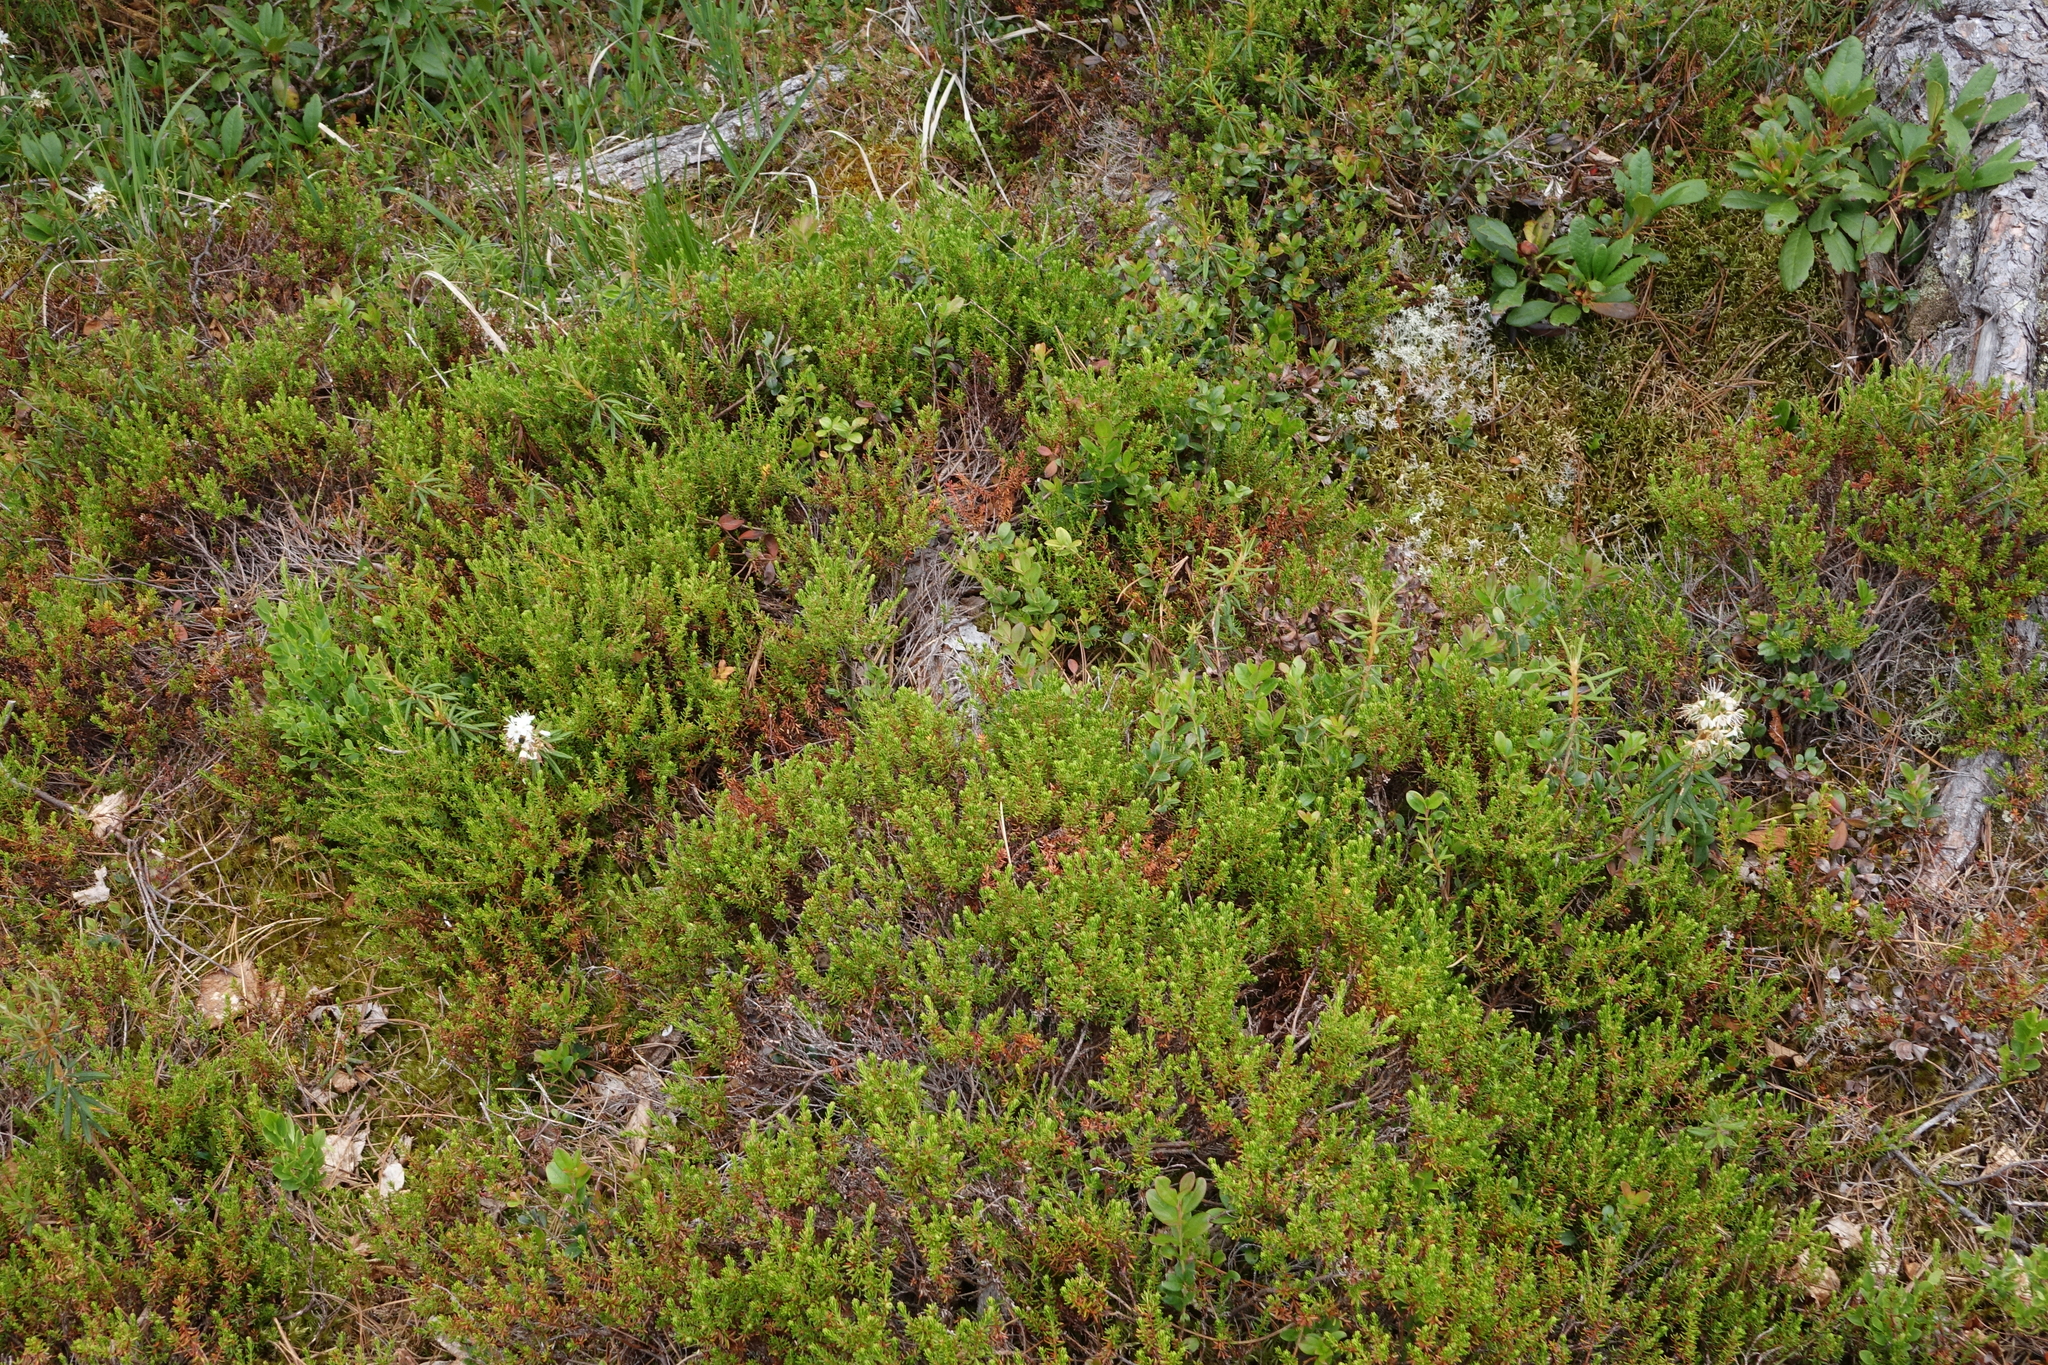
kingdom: Plantae
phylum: Tracheophyta
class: Magnoliopsida
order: Ericales
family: Ericaceae
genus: Empetrum
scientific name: Empetrum nigrum
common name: Black crowberry
